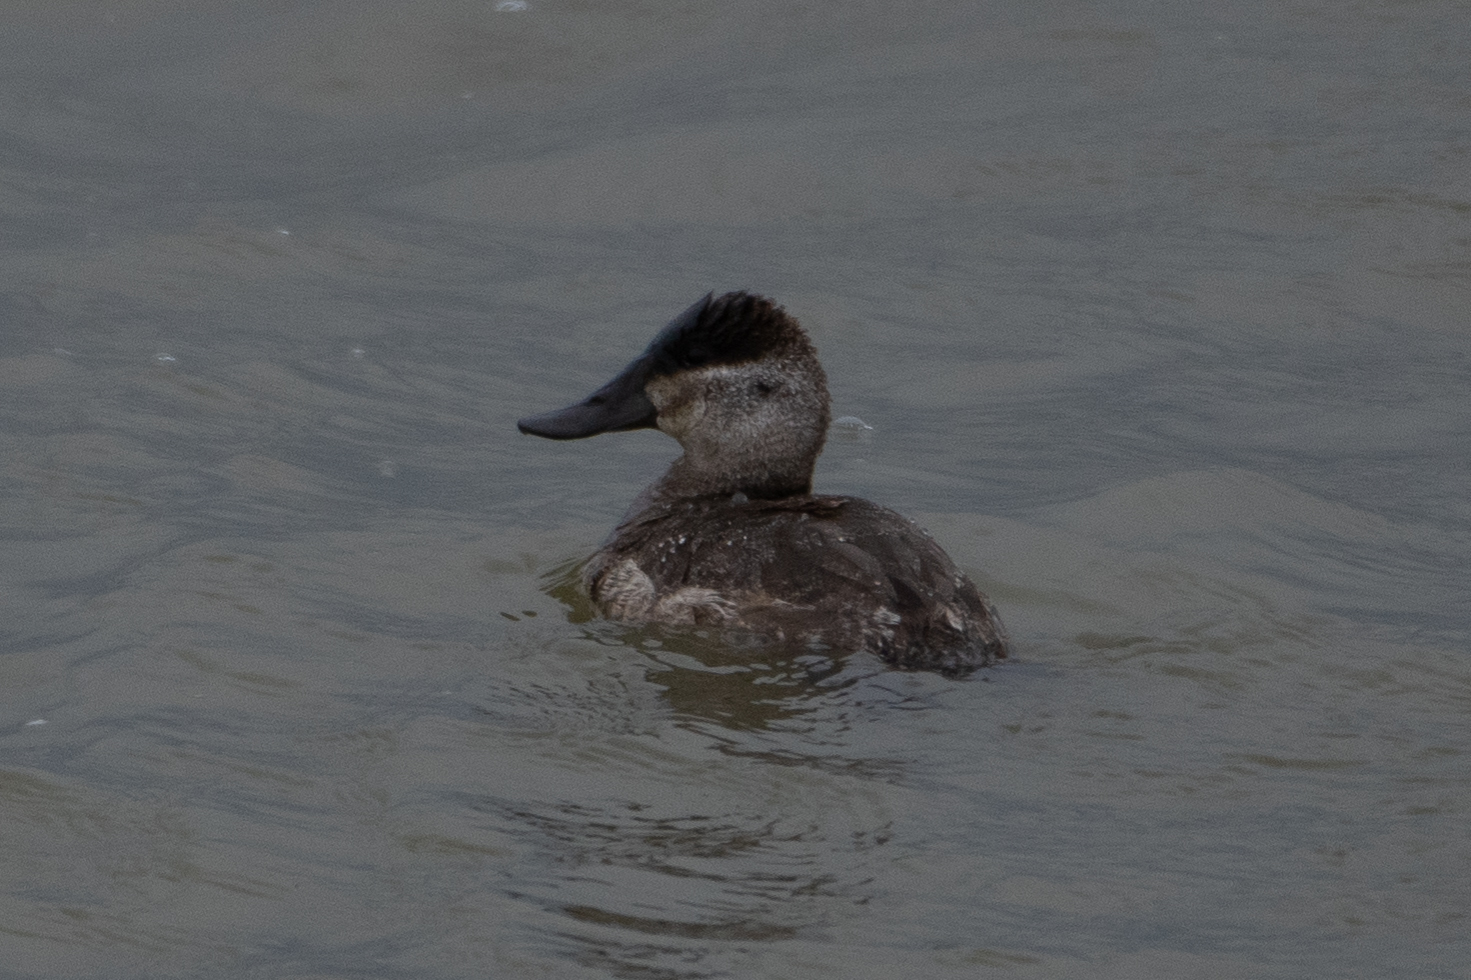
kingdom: Animalia
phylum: Chordata
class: Aves
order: Anseriformes
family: Anatidae
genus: Oxyura
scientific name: Oxyura jamaicensis
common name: Ruddy duck
